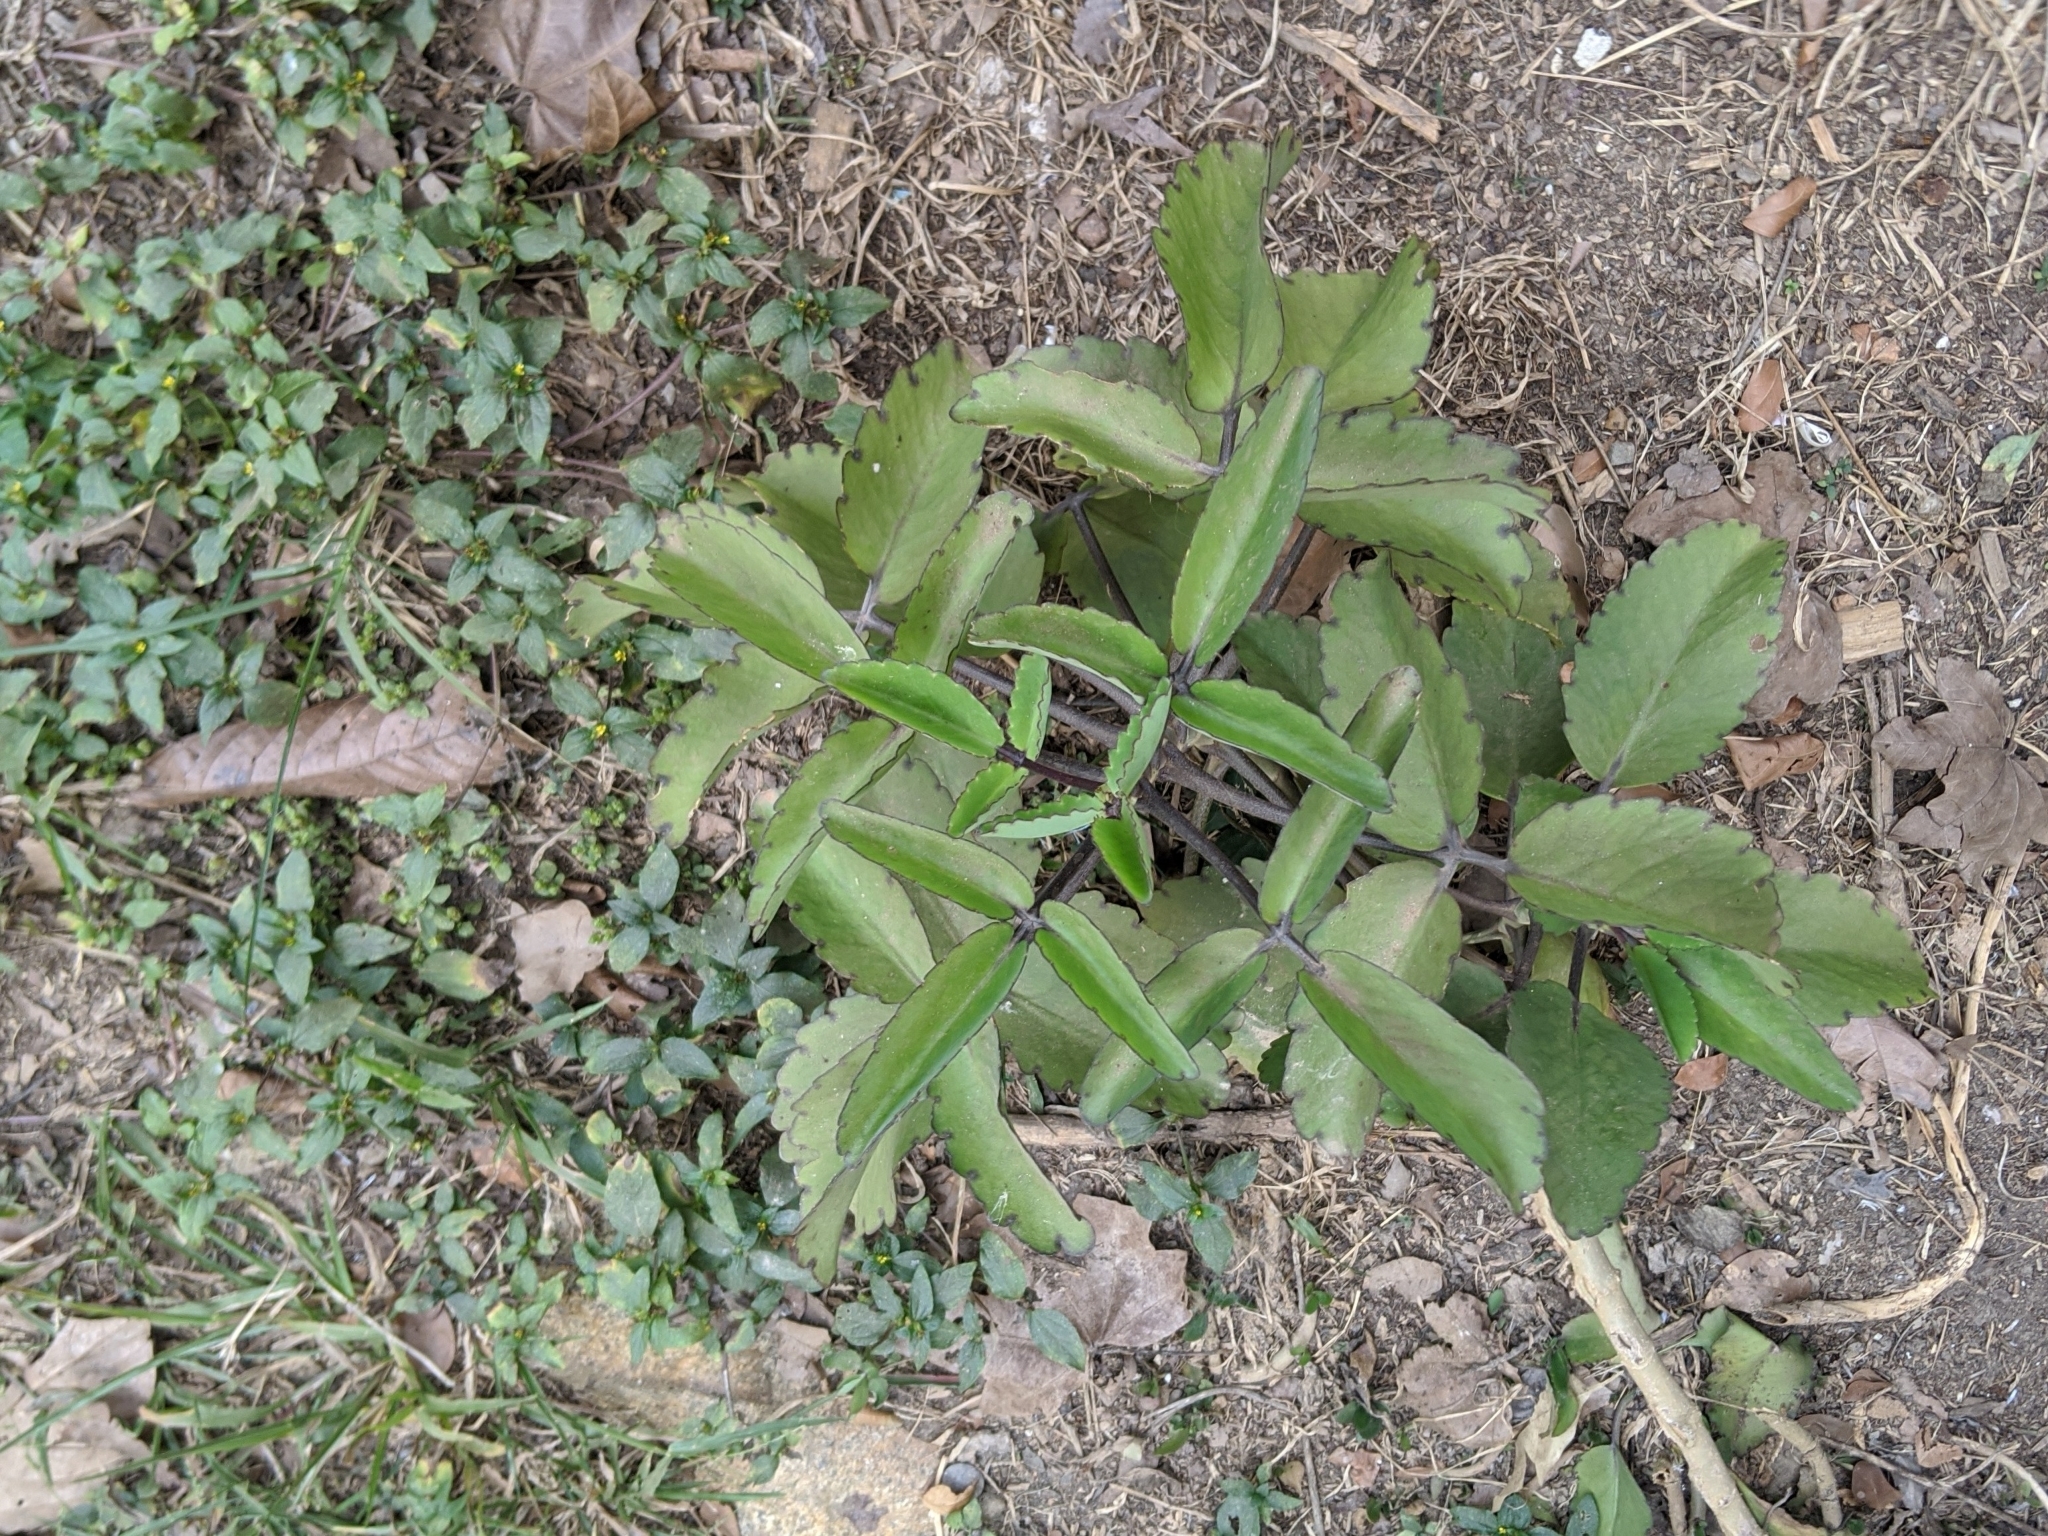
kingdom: Plantae
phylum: Tracheophyta
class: Magnoliopsida
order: Saxifragales
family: Crassulaceae
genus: Kalanchoe
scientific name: Kalanchoe pinnata
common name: Cathedral bells
